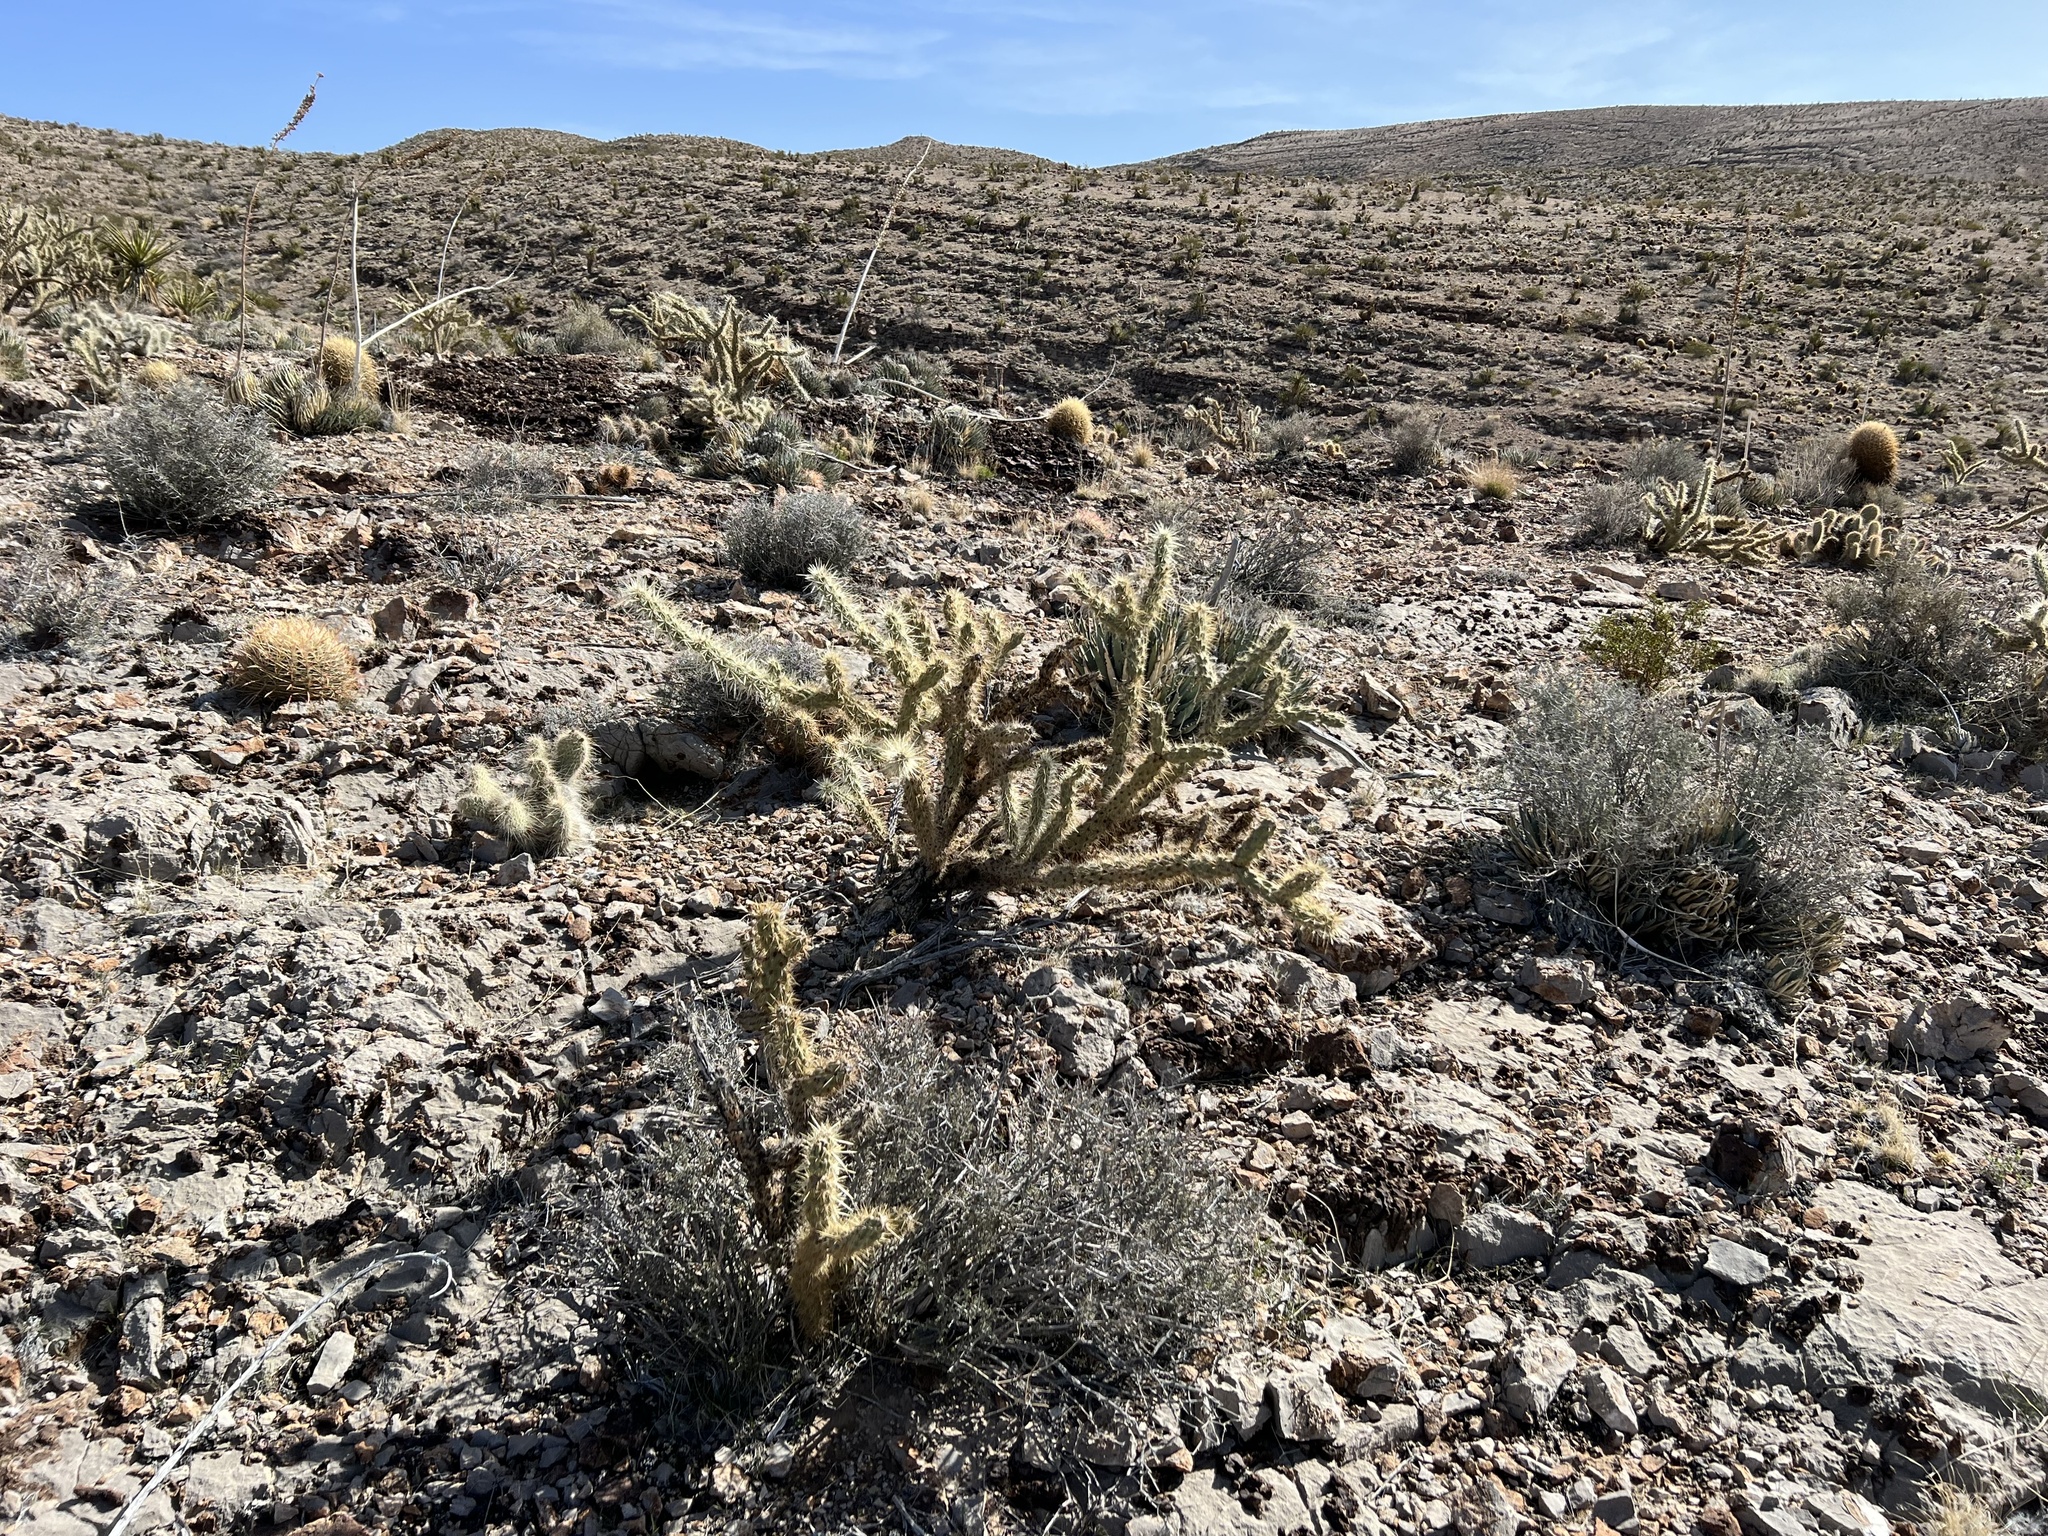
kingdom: Plantae
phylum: Tracheophyta
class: Magnoliopsida
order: Caryophyllales
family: Cactaceae
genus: Cylindropuntia
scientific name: Cylindropuntia acanthocarpa
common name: Buckhorn cholla
